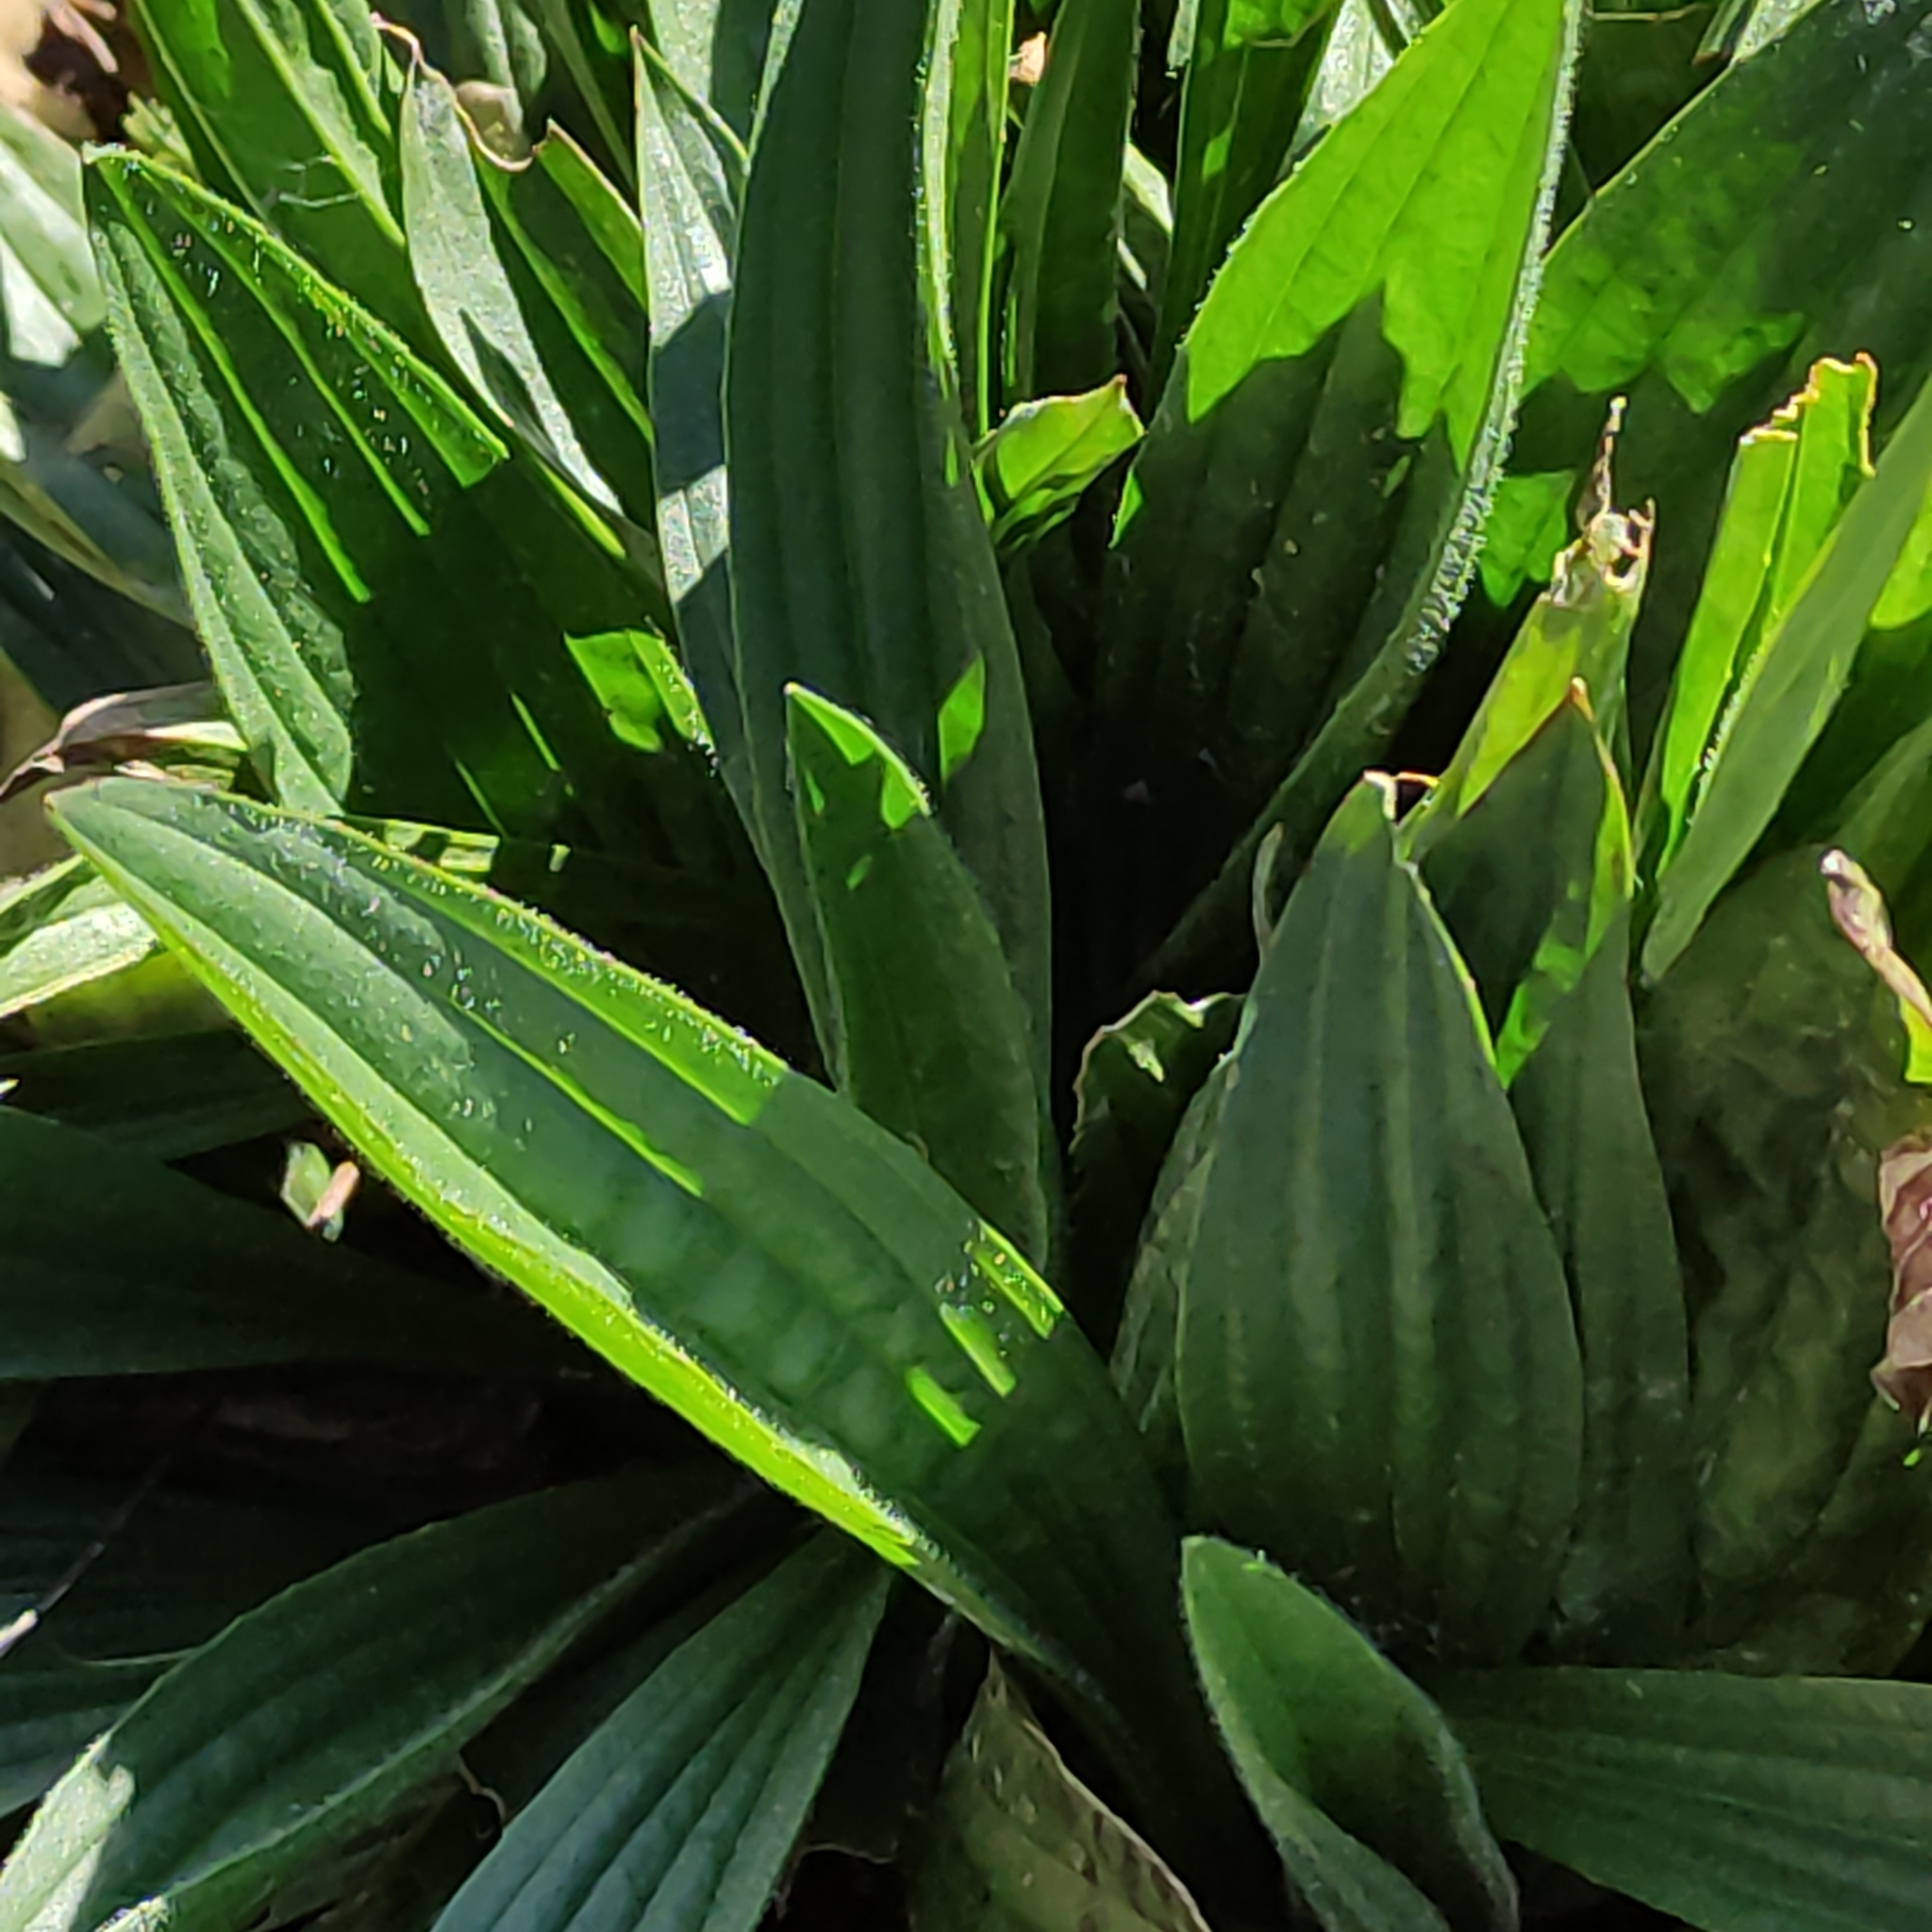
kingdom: Plantae
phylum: Tracheophyta
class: Magnoliopsida
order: Lamiales
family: Plantaginaceae
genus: Plantago
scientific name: Plantago lanceolata
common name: Ribwort plantain
